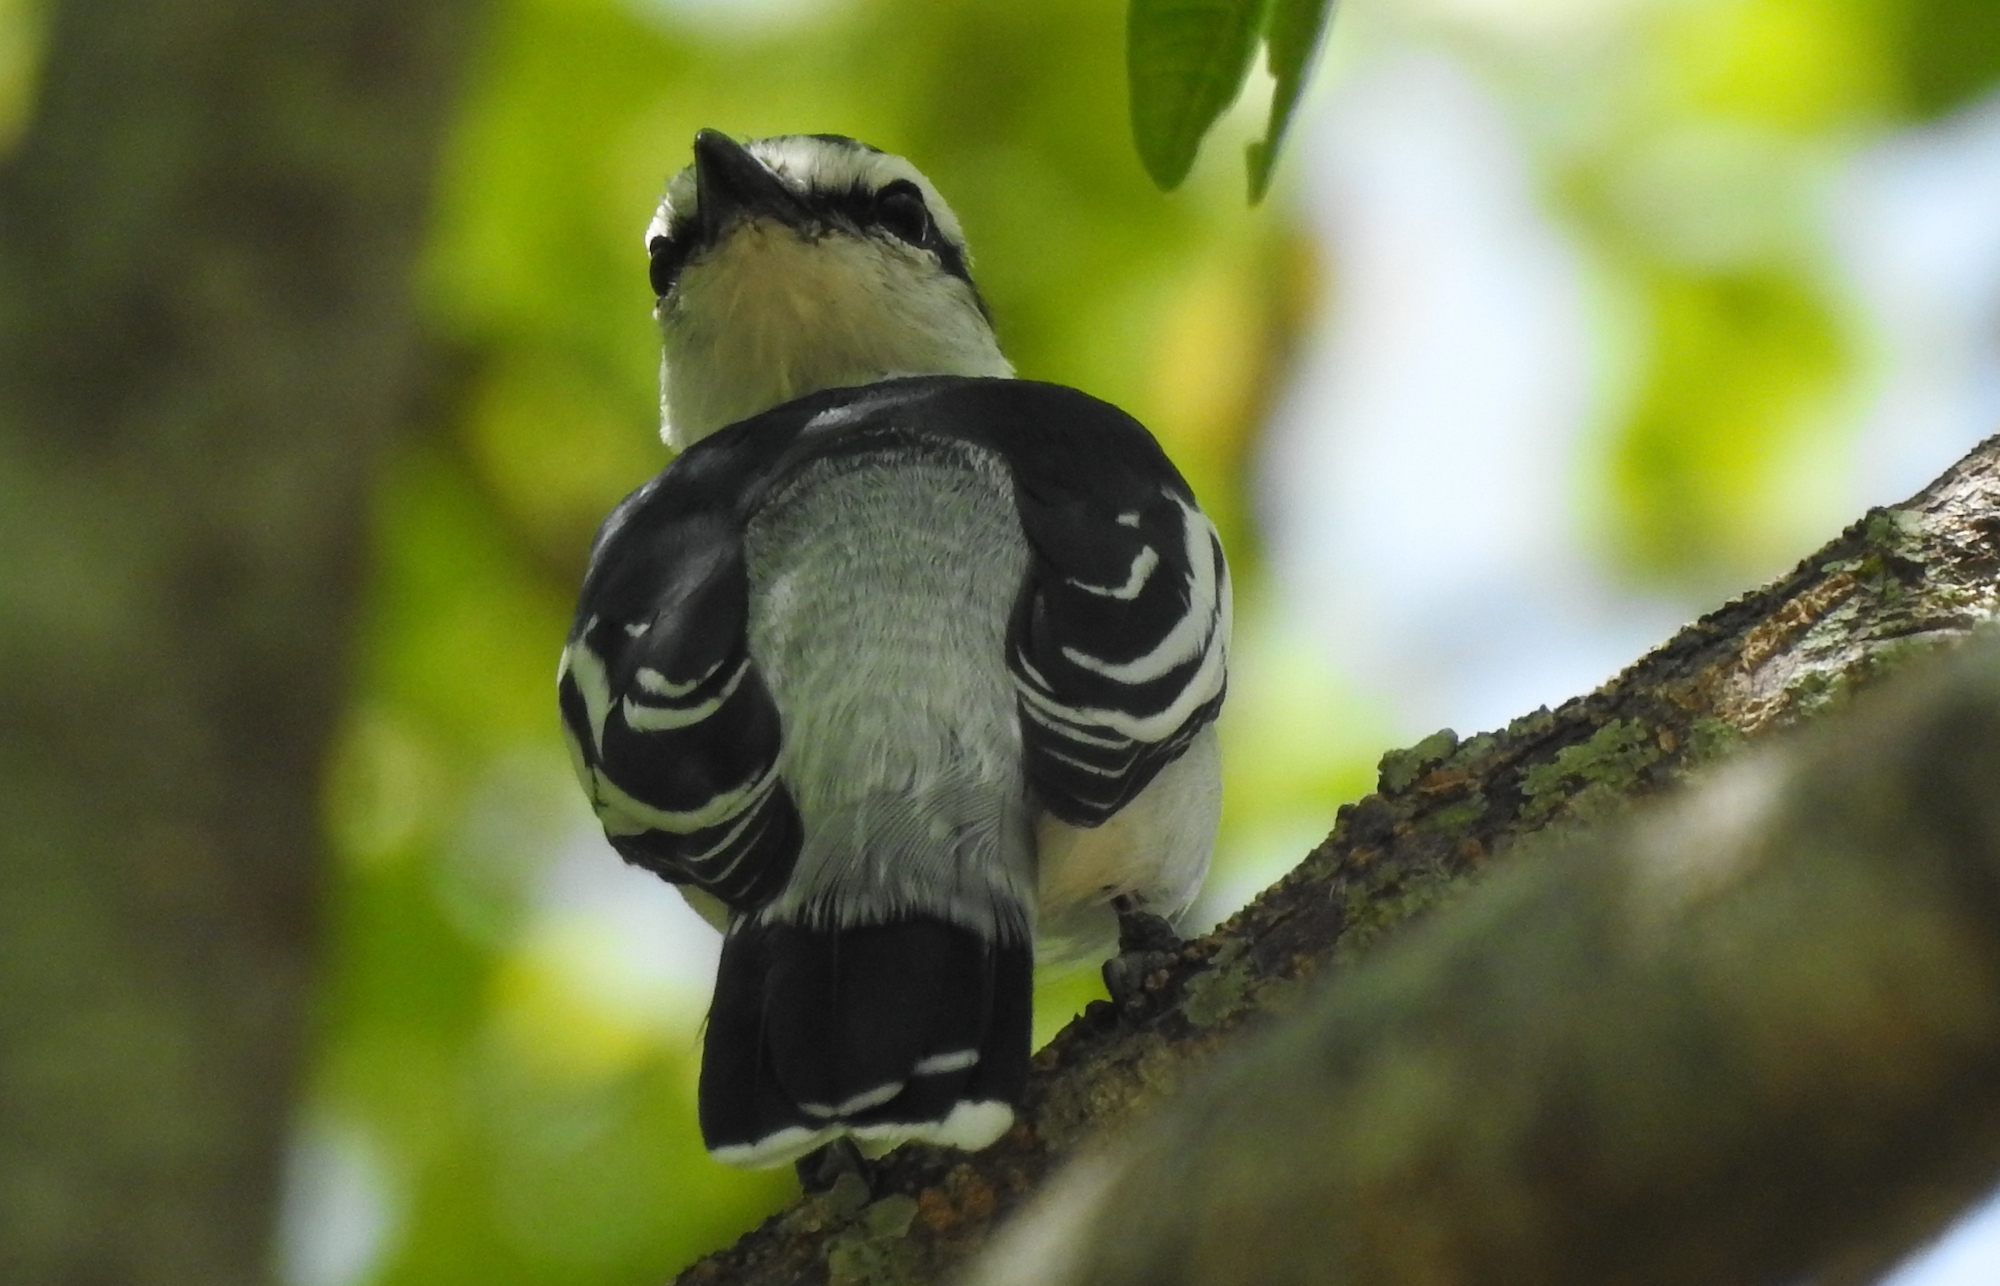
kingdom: Animalia
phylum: Chordata
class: Aves
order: Passeriformes
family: Campephagidae
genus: Lalage
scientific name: Lalage nigra
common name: Pied triller
